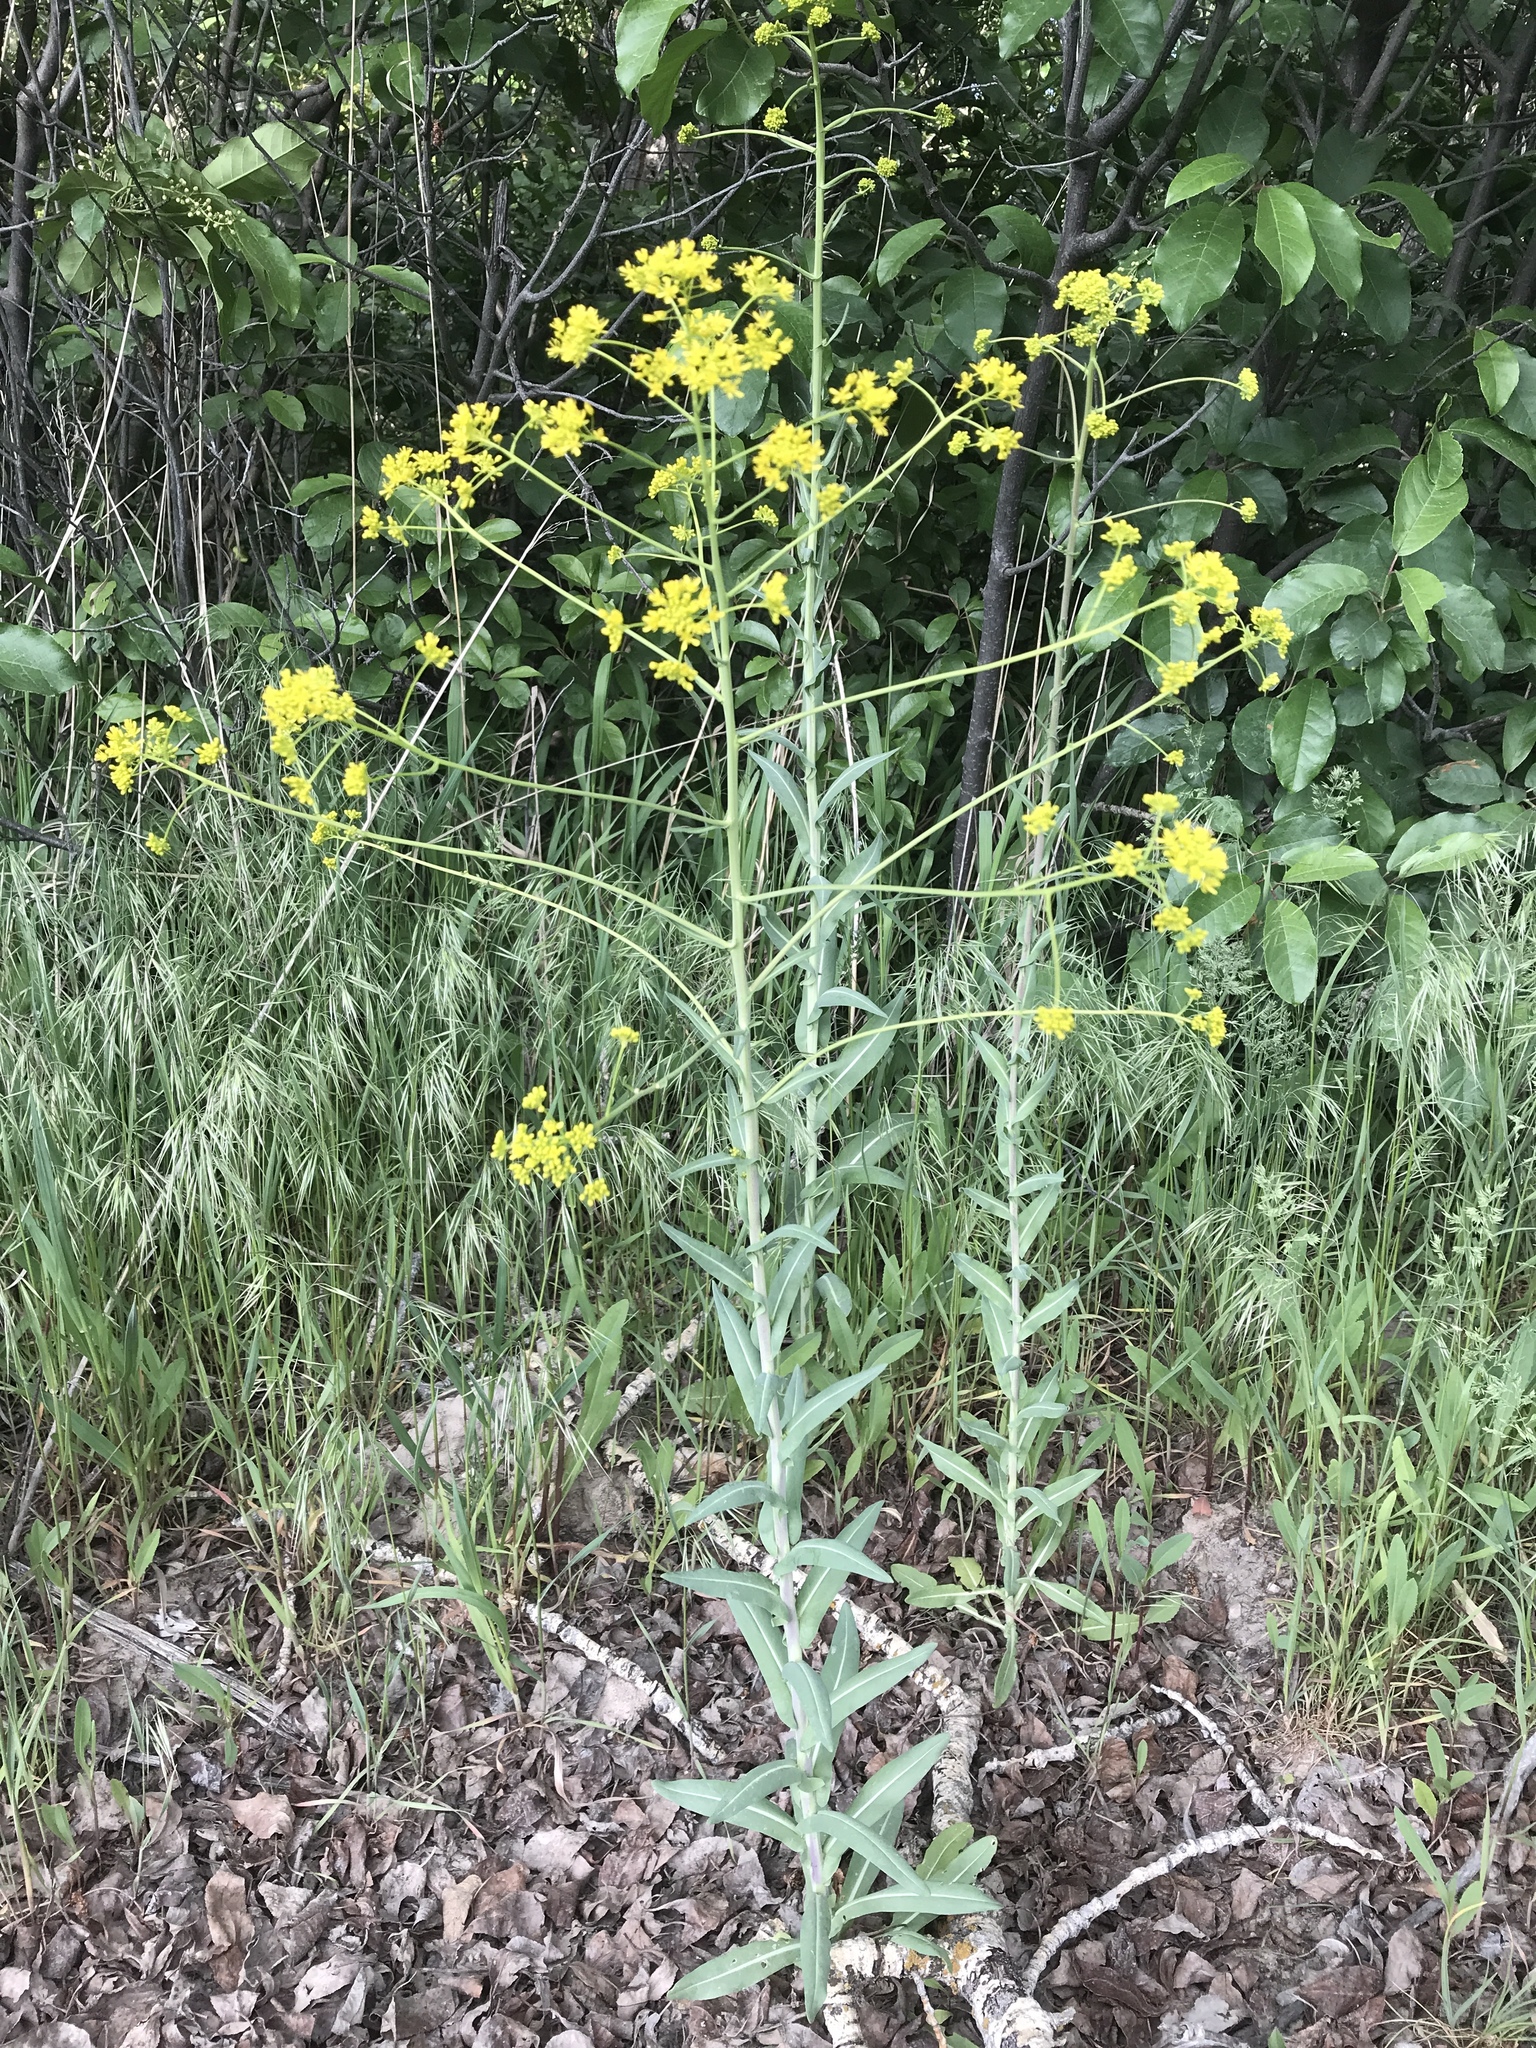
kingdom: Plantae
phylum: Tracheophyta
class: Magnoliopsida
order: Brassicales
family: Brassicaceae
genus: Isatis
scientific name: Isatis tinctoria
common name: Woad
